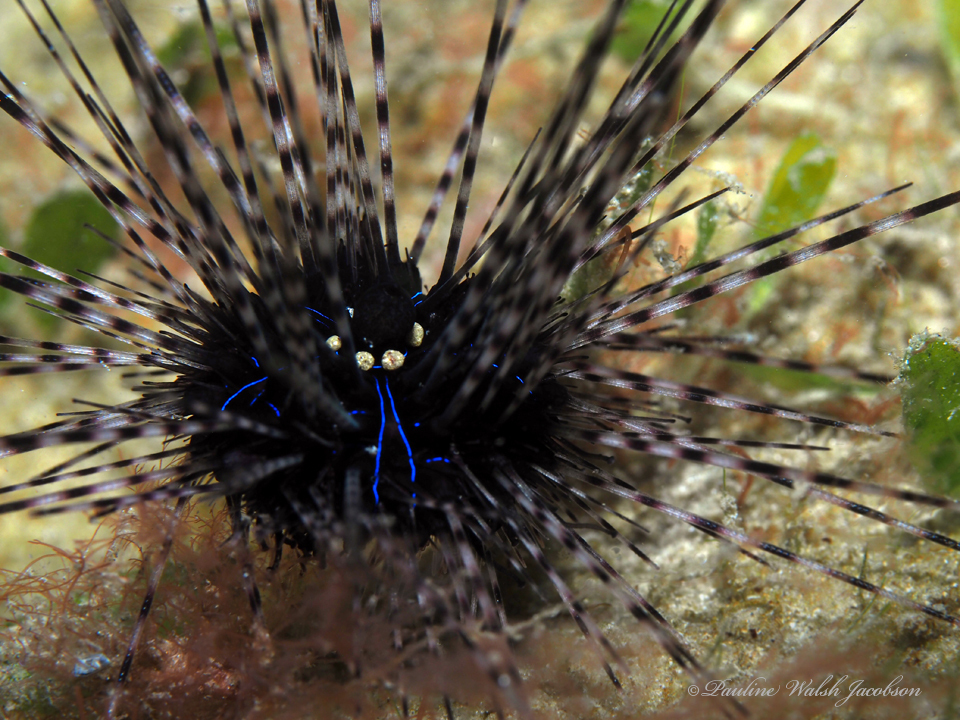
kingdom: Animalia
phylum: Echinodermata
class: Echinoidea
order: Diadematoida
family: Diadematidae
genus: Diadema
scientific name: Diadema antillarum
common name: Spiny urchin
